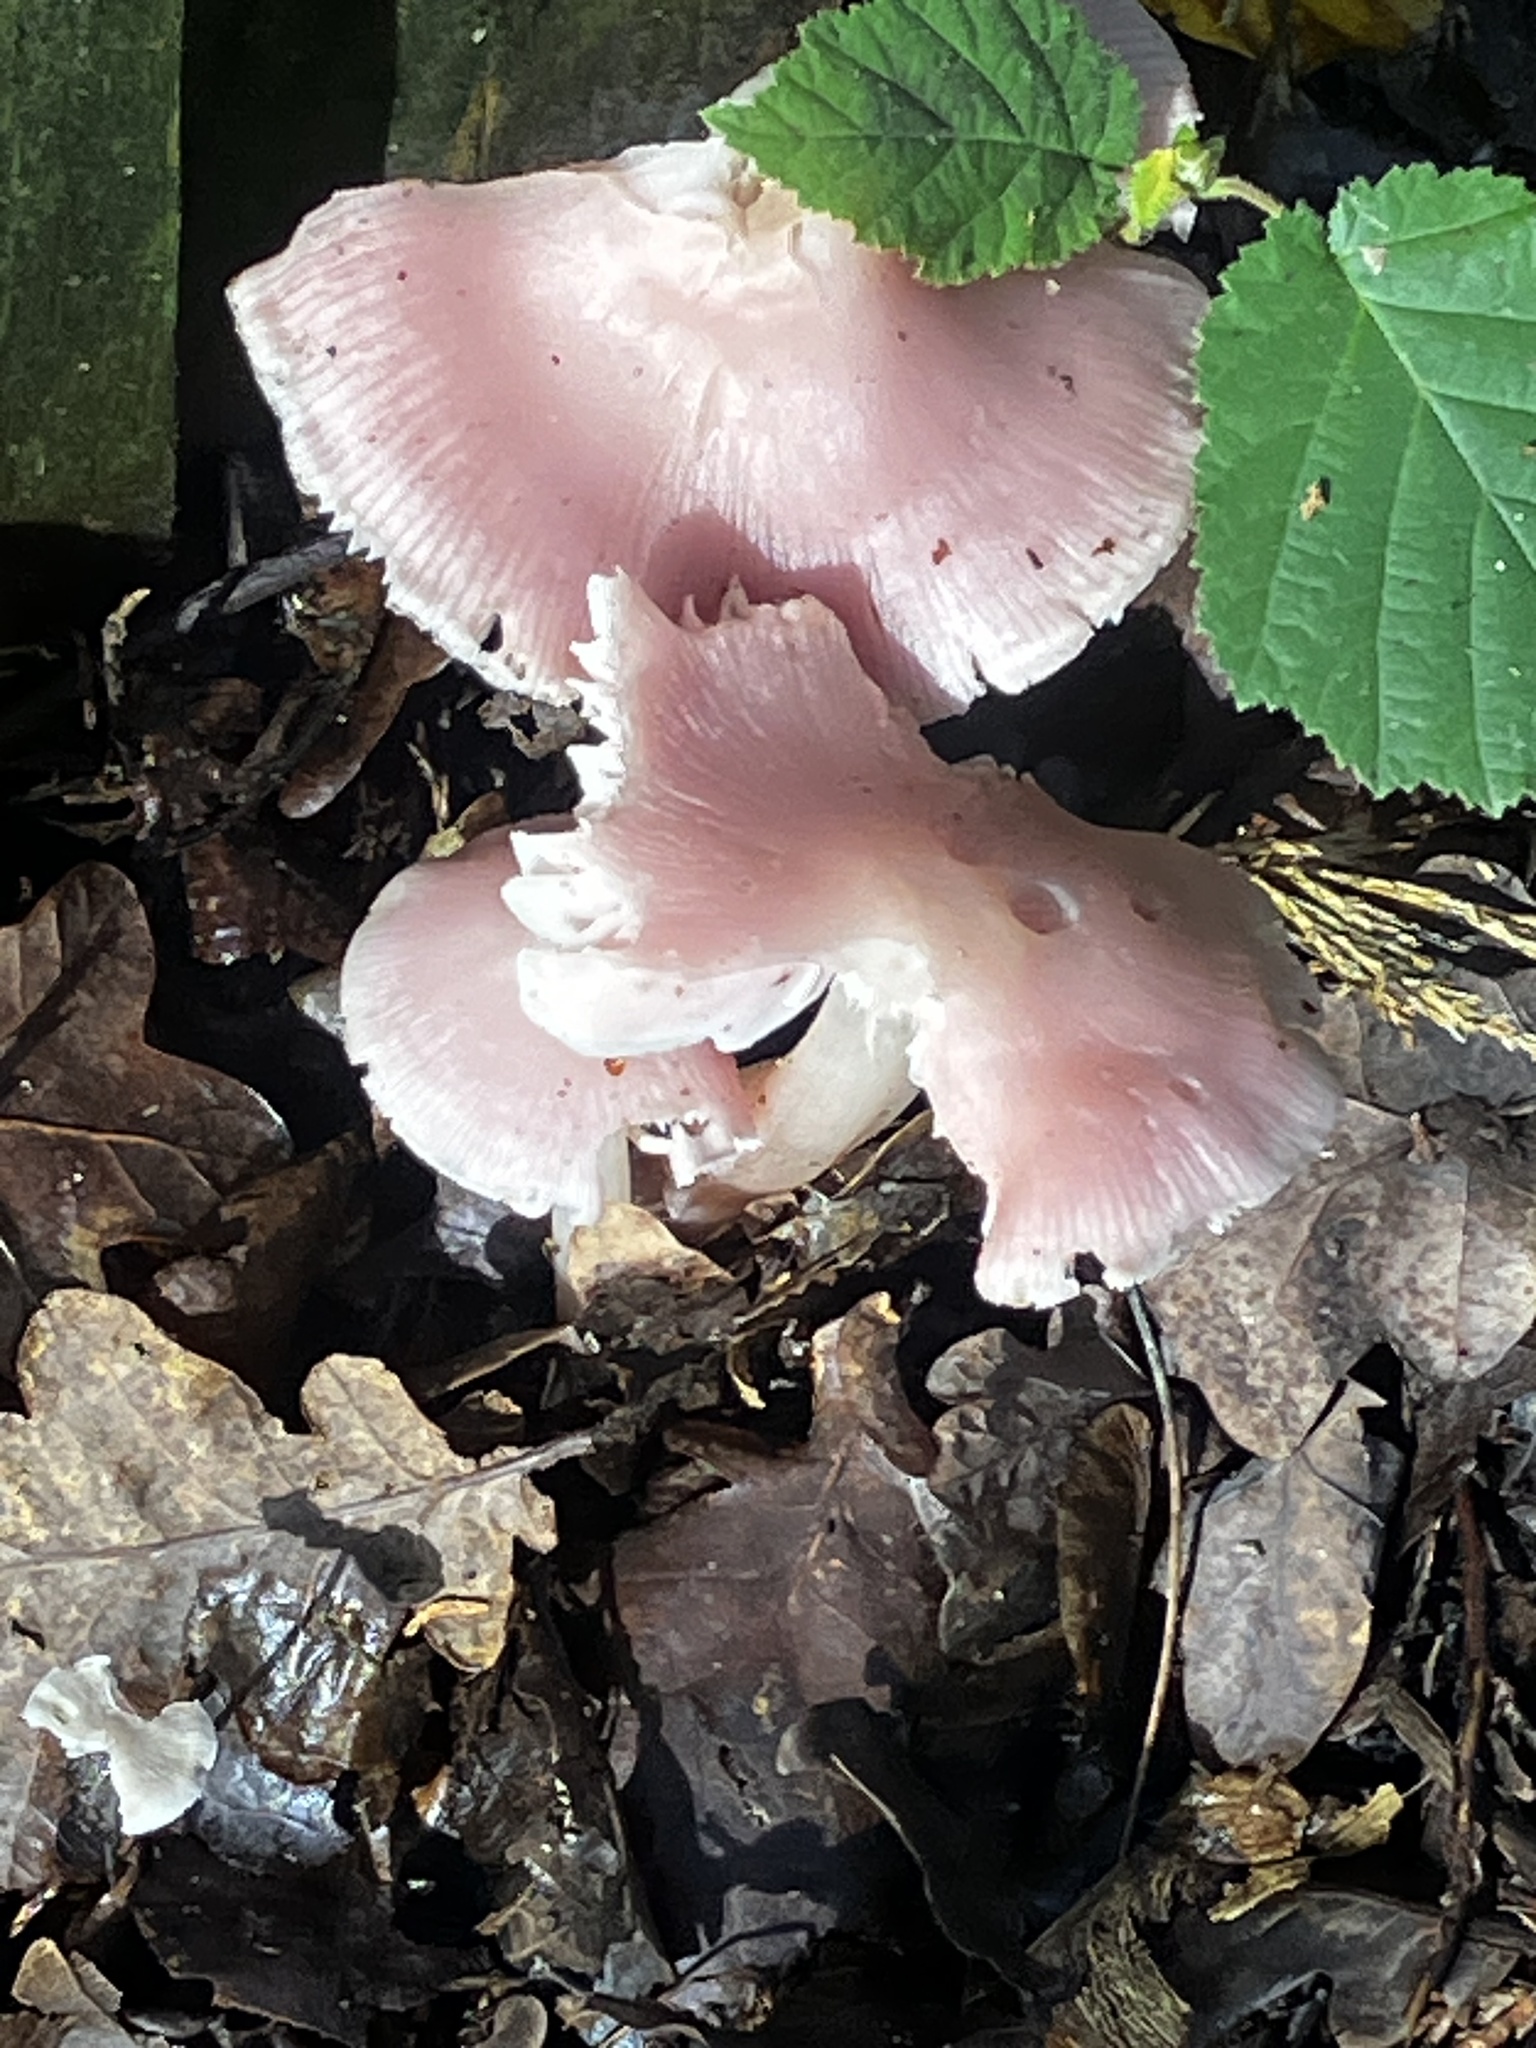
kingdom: Fungi
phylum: Basidiomycota
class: Agaricomycetes
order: Agaricales
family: Mycenaceae
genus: Mycena
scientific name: Mycena rosea
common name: Rosy bonnet
